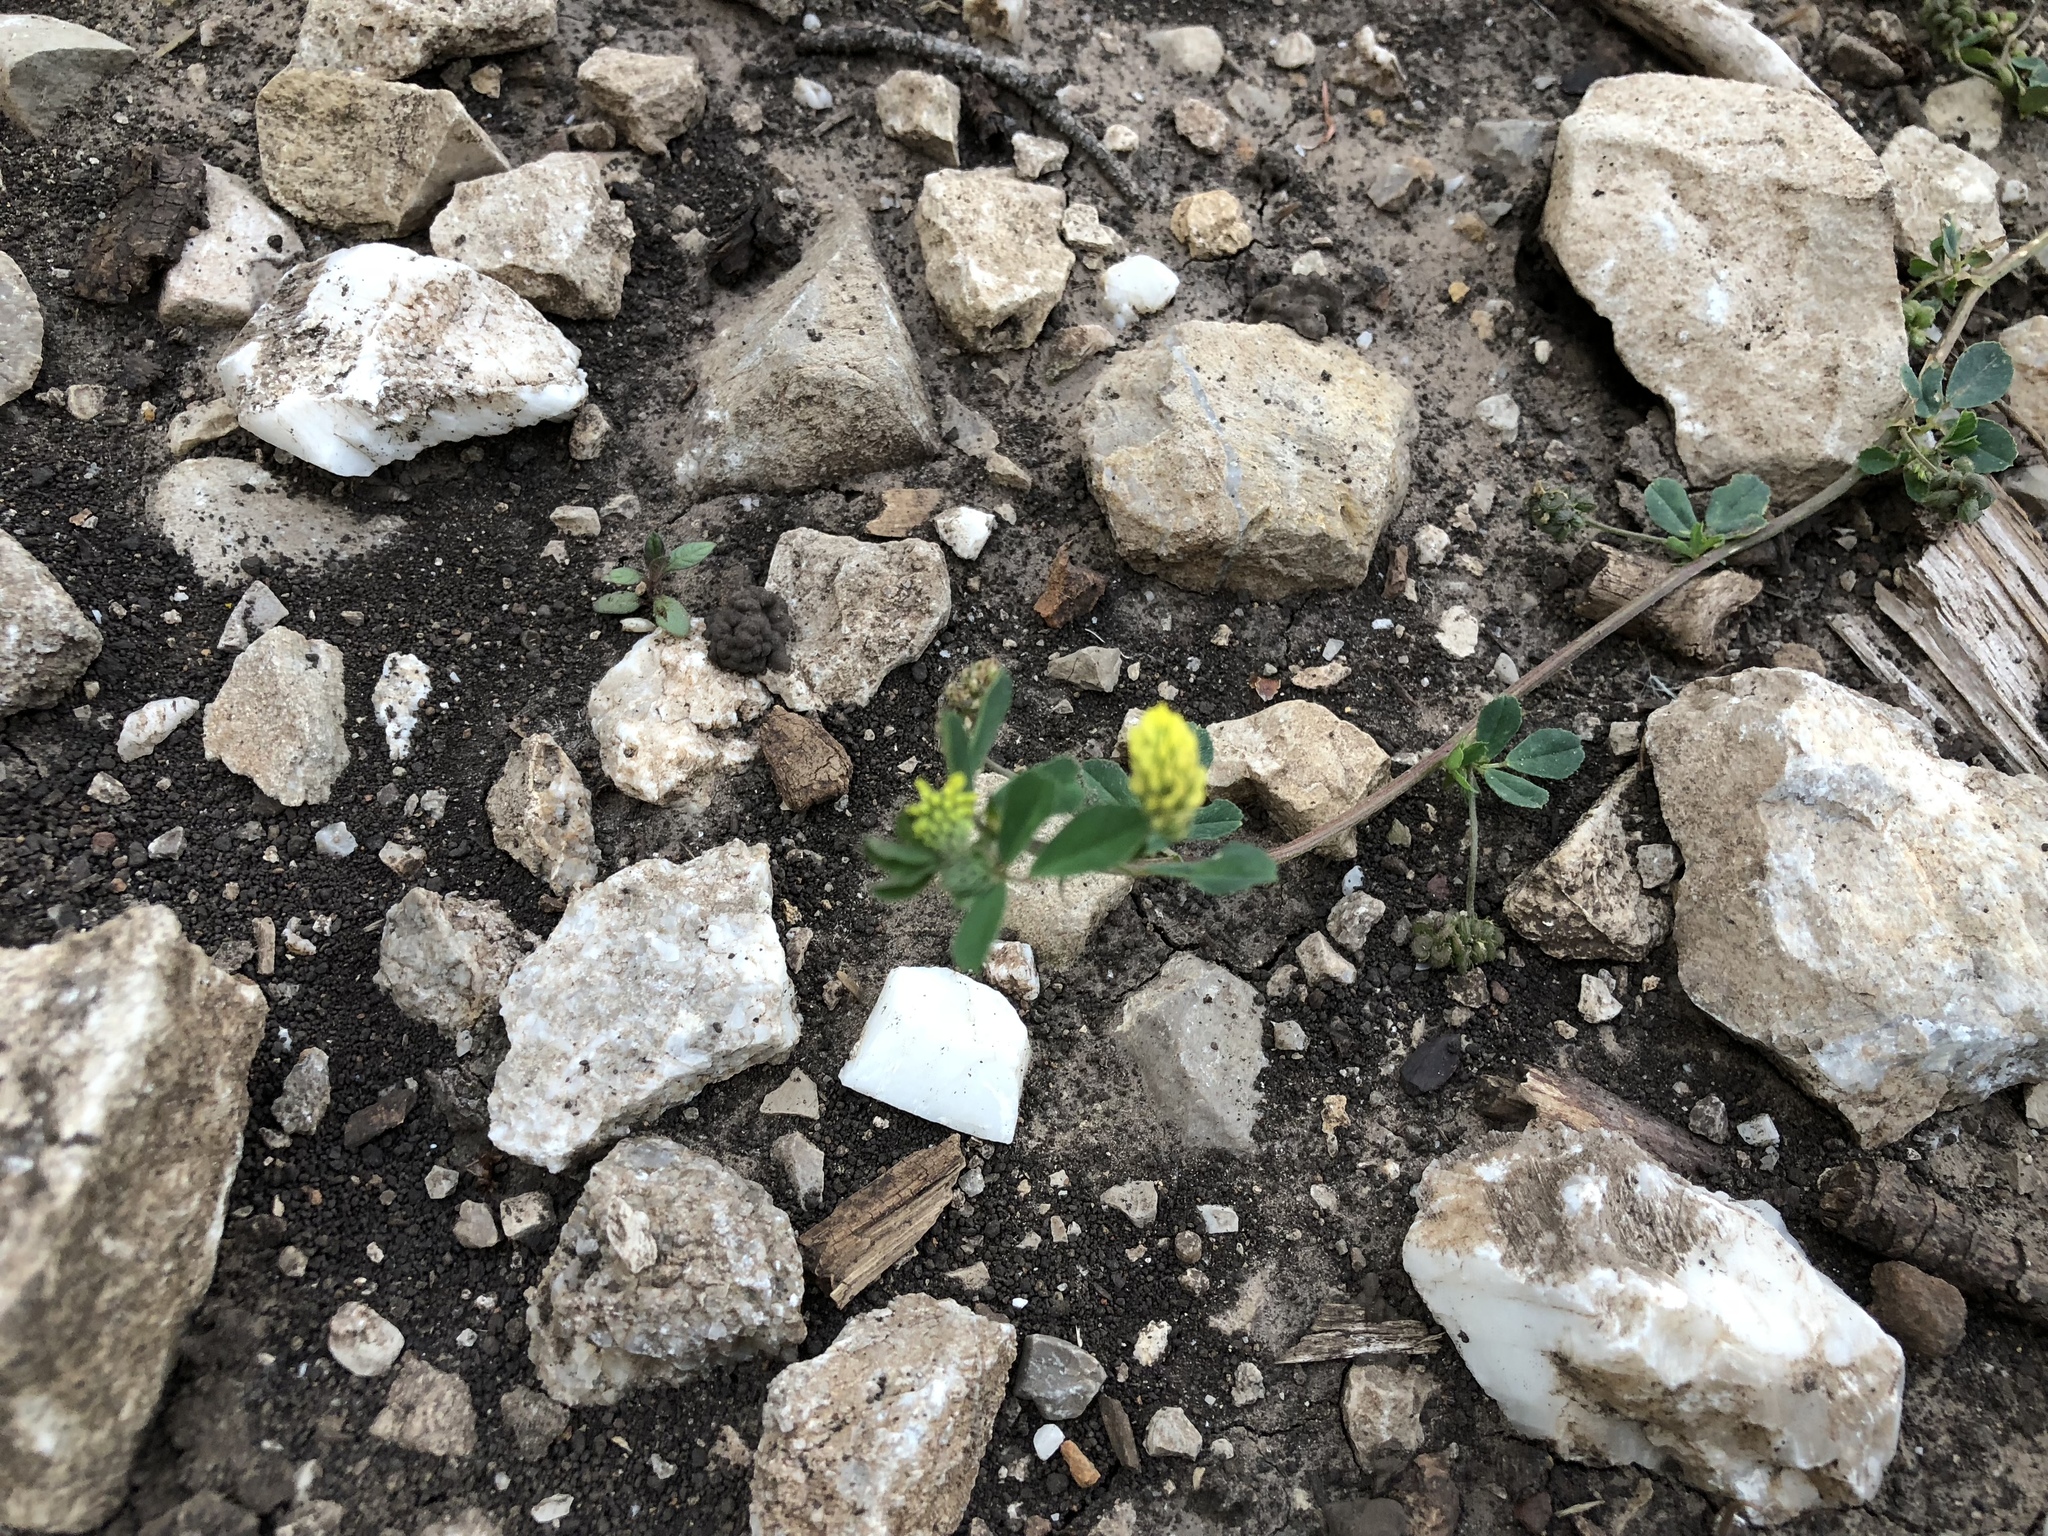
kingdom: Plantae
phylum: Tracheophyta
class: Magnoliopsida
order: Fabales
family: Fabaceae
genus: Medicago
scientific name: Medicago lupulina
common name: Black medick
